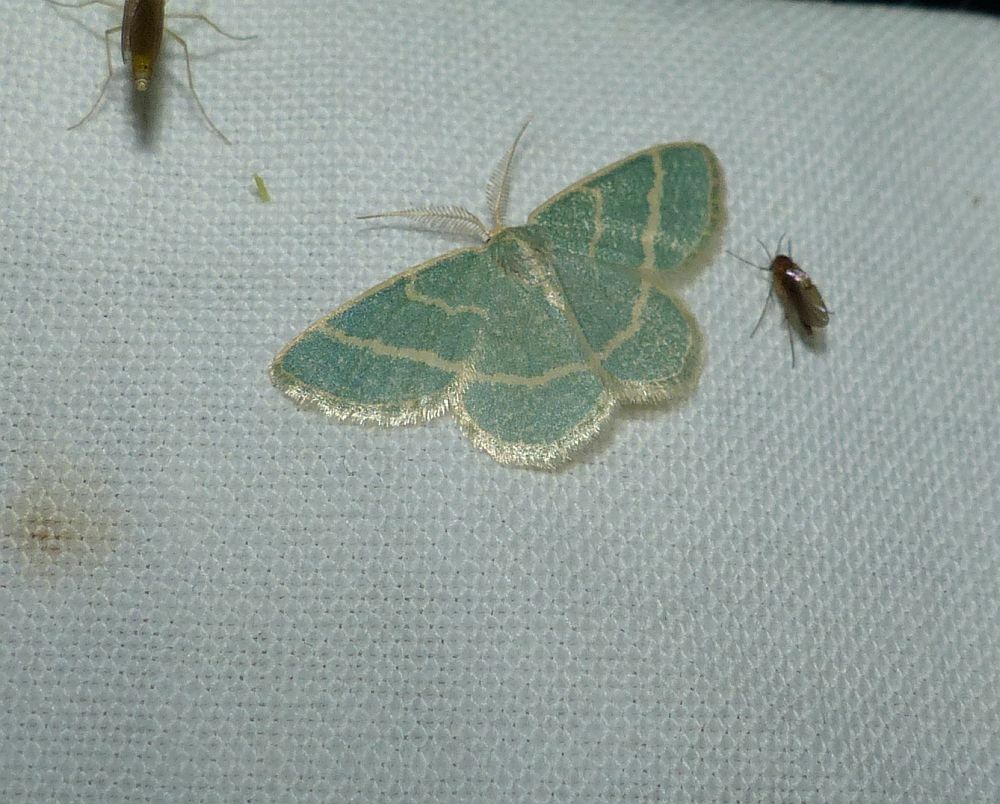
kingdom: Animalia
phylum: Arthropoda
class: Insecta
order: Lepidoptera
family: Geometridae
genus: Chlorochlamys
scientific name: Chlorochlamys chloroleucaria
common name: Blackberry looper
